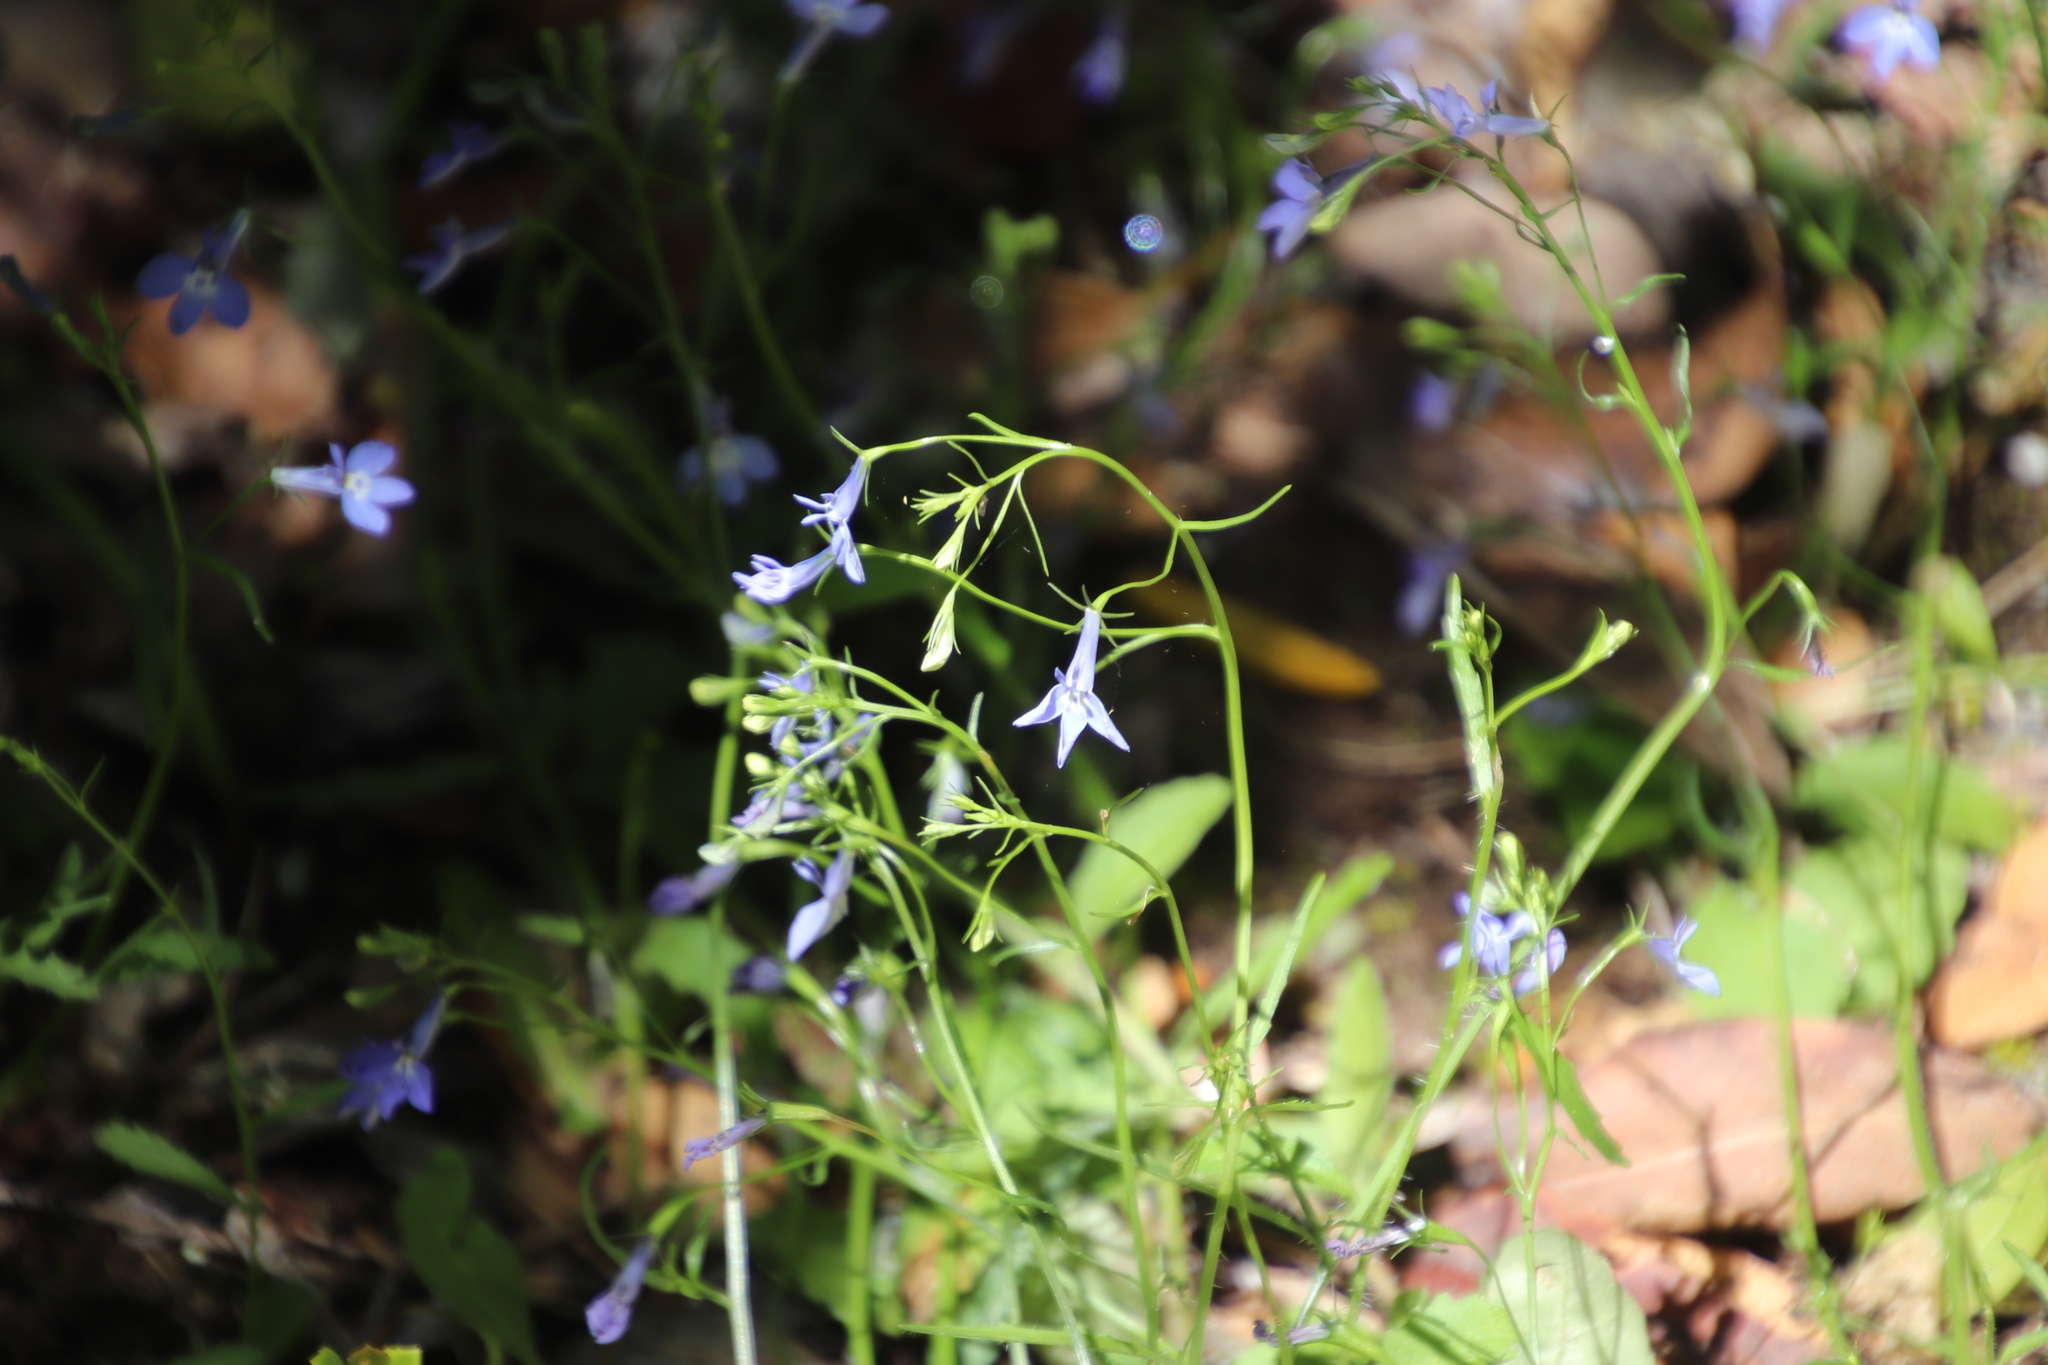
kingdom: Plantae
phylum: Tracheophyta
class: Magnoliopsida
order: Asterales
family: Campanulaceae
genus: Lobelia
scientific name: Lobelia erinus
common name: Edging lobelia
